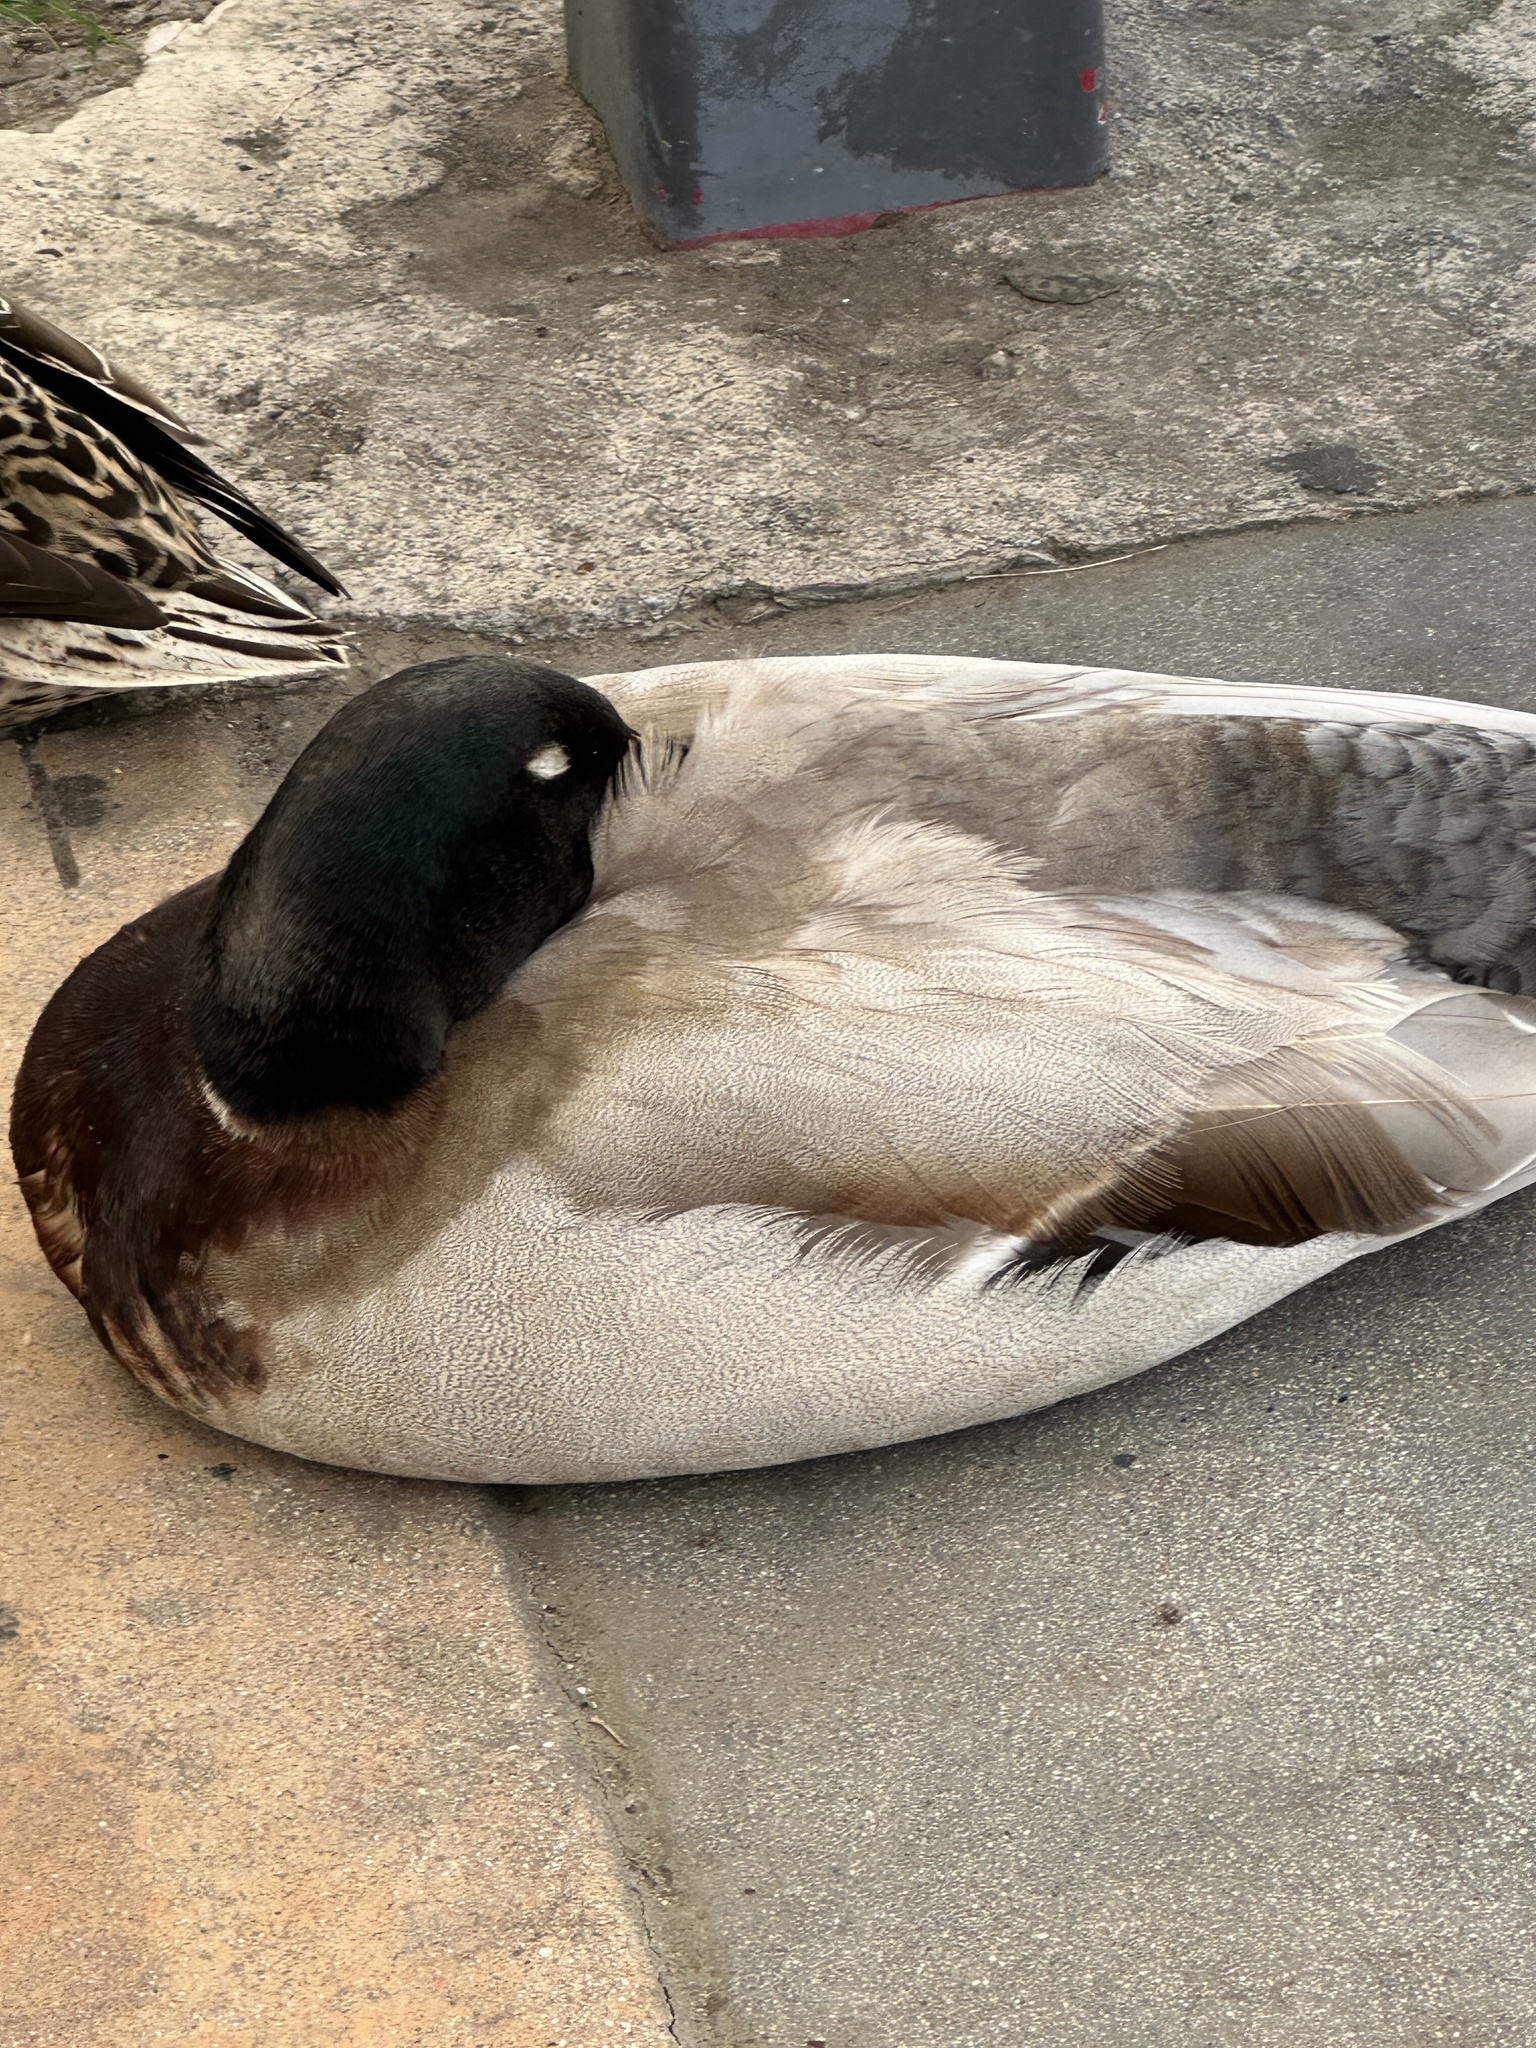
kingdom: Animalia
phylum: Chordata
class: Aves
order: Anseriformes
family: Anatidae
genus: Anas
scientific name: Anas platyrhynchos
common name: Mallard
